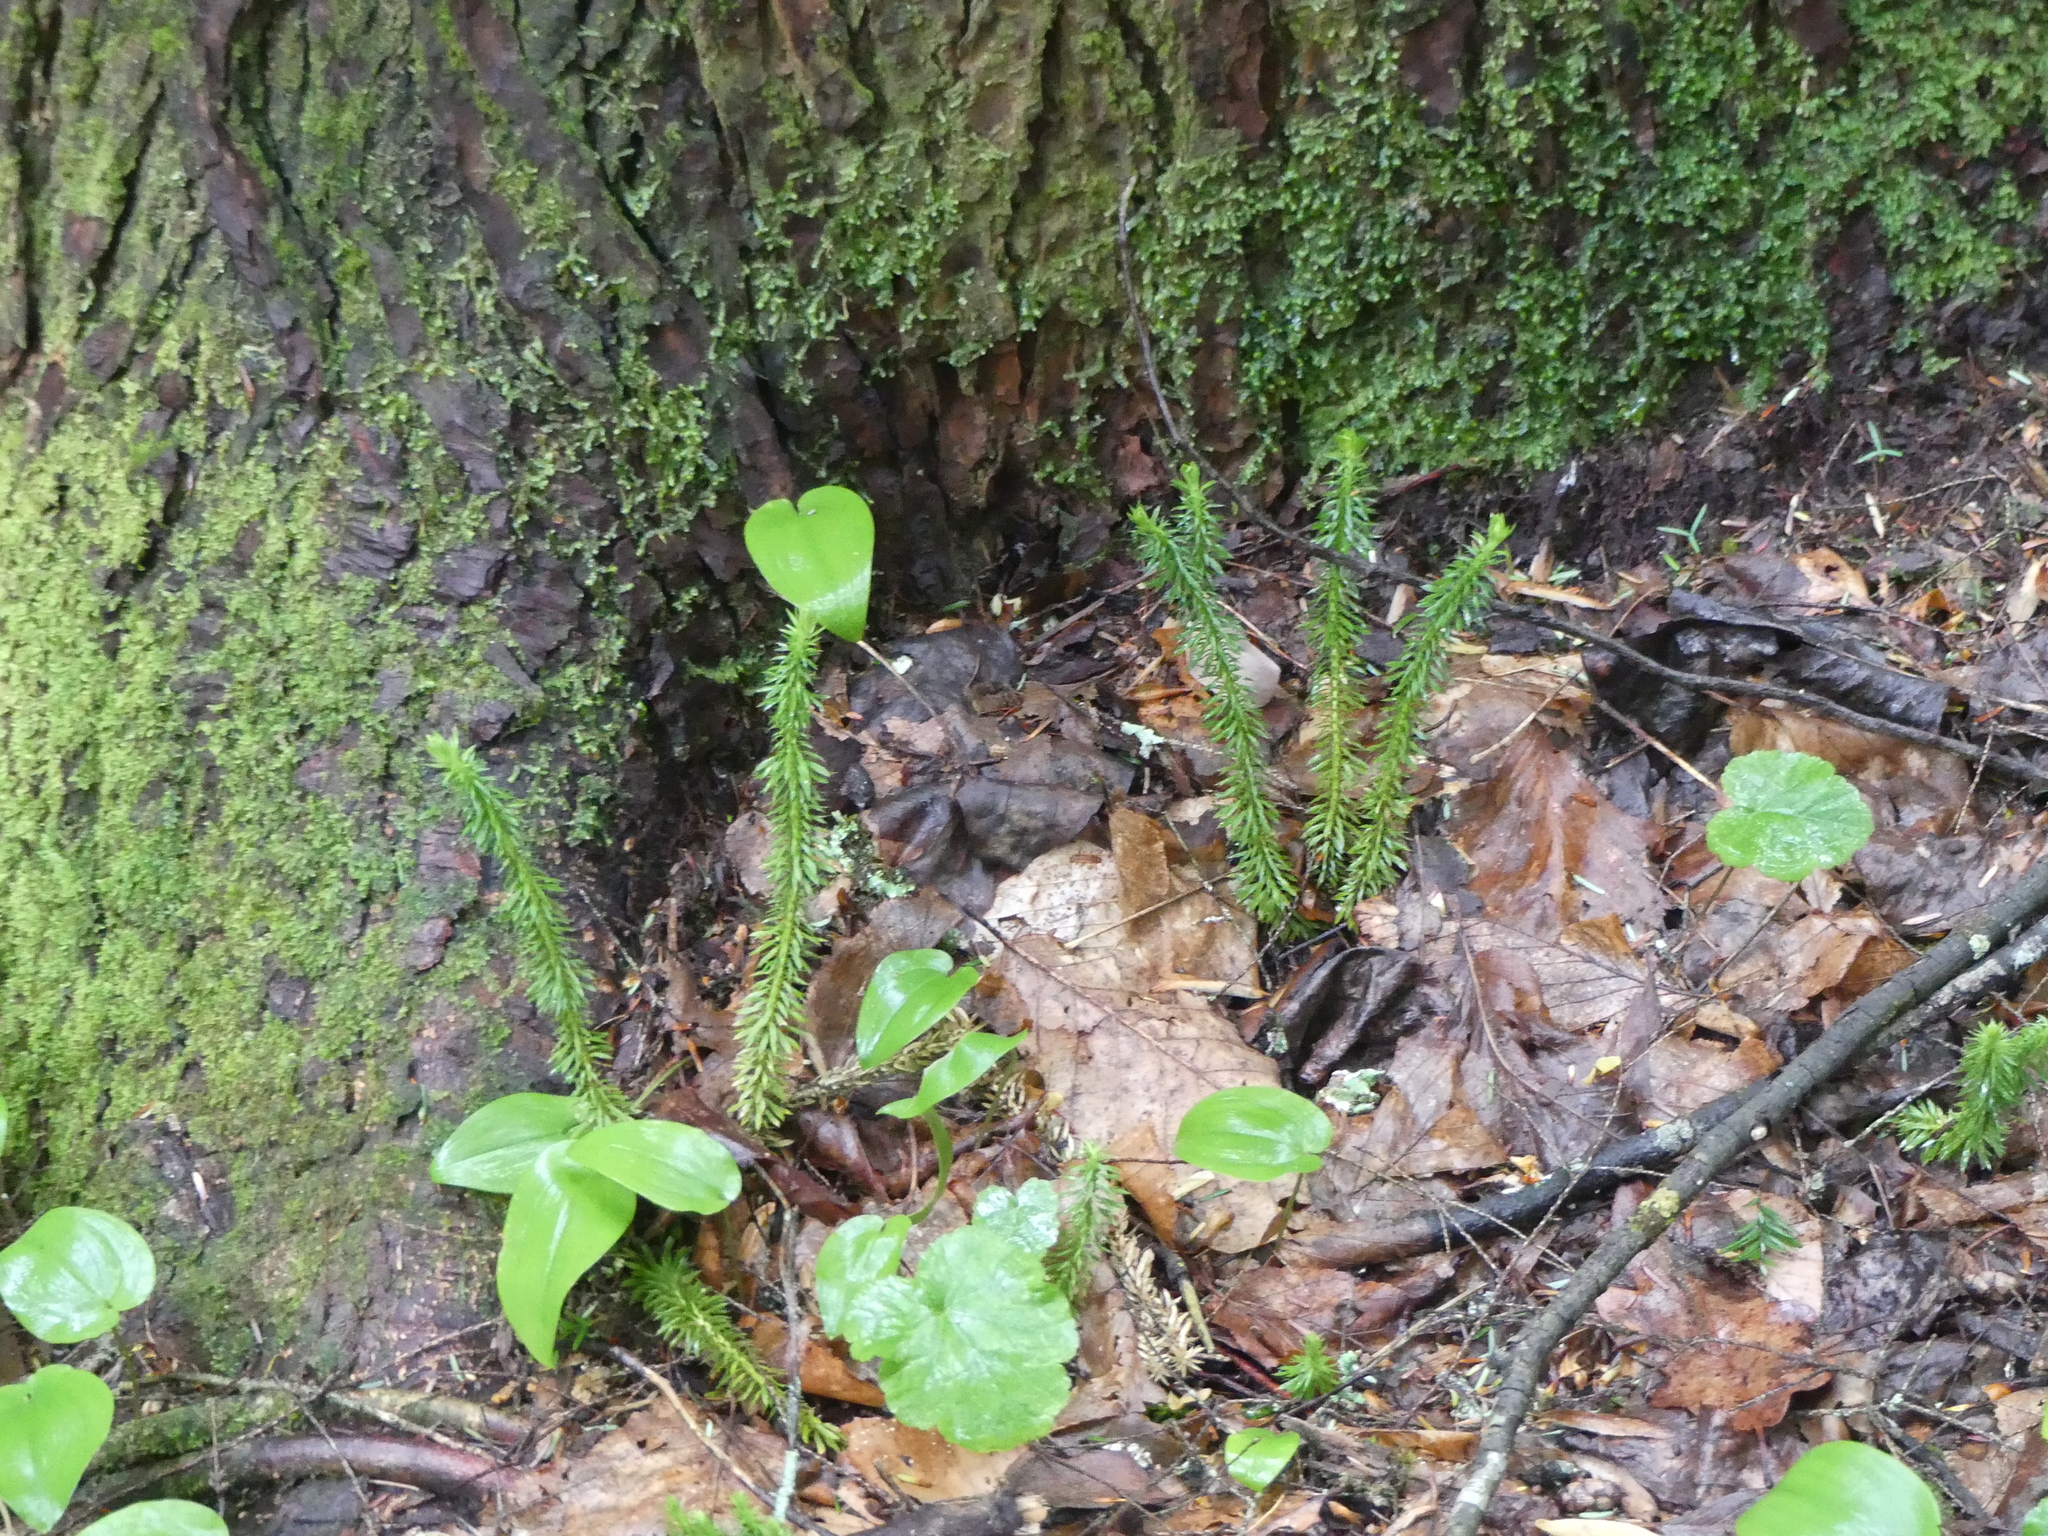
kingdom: Plantae
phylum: Tracheophyta
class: Lycopodiopsida
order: Lycopodiales
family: Lycopodiaceae
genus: Huperzia
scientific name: Huperzia lucidula
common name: Shining clubmoss
